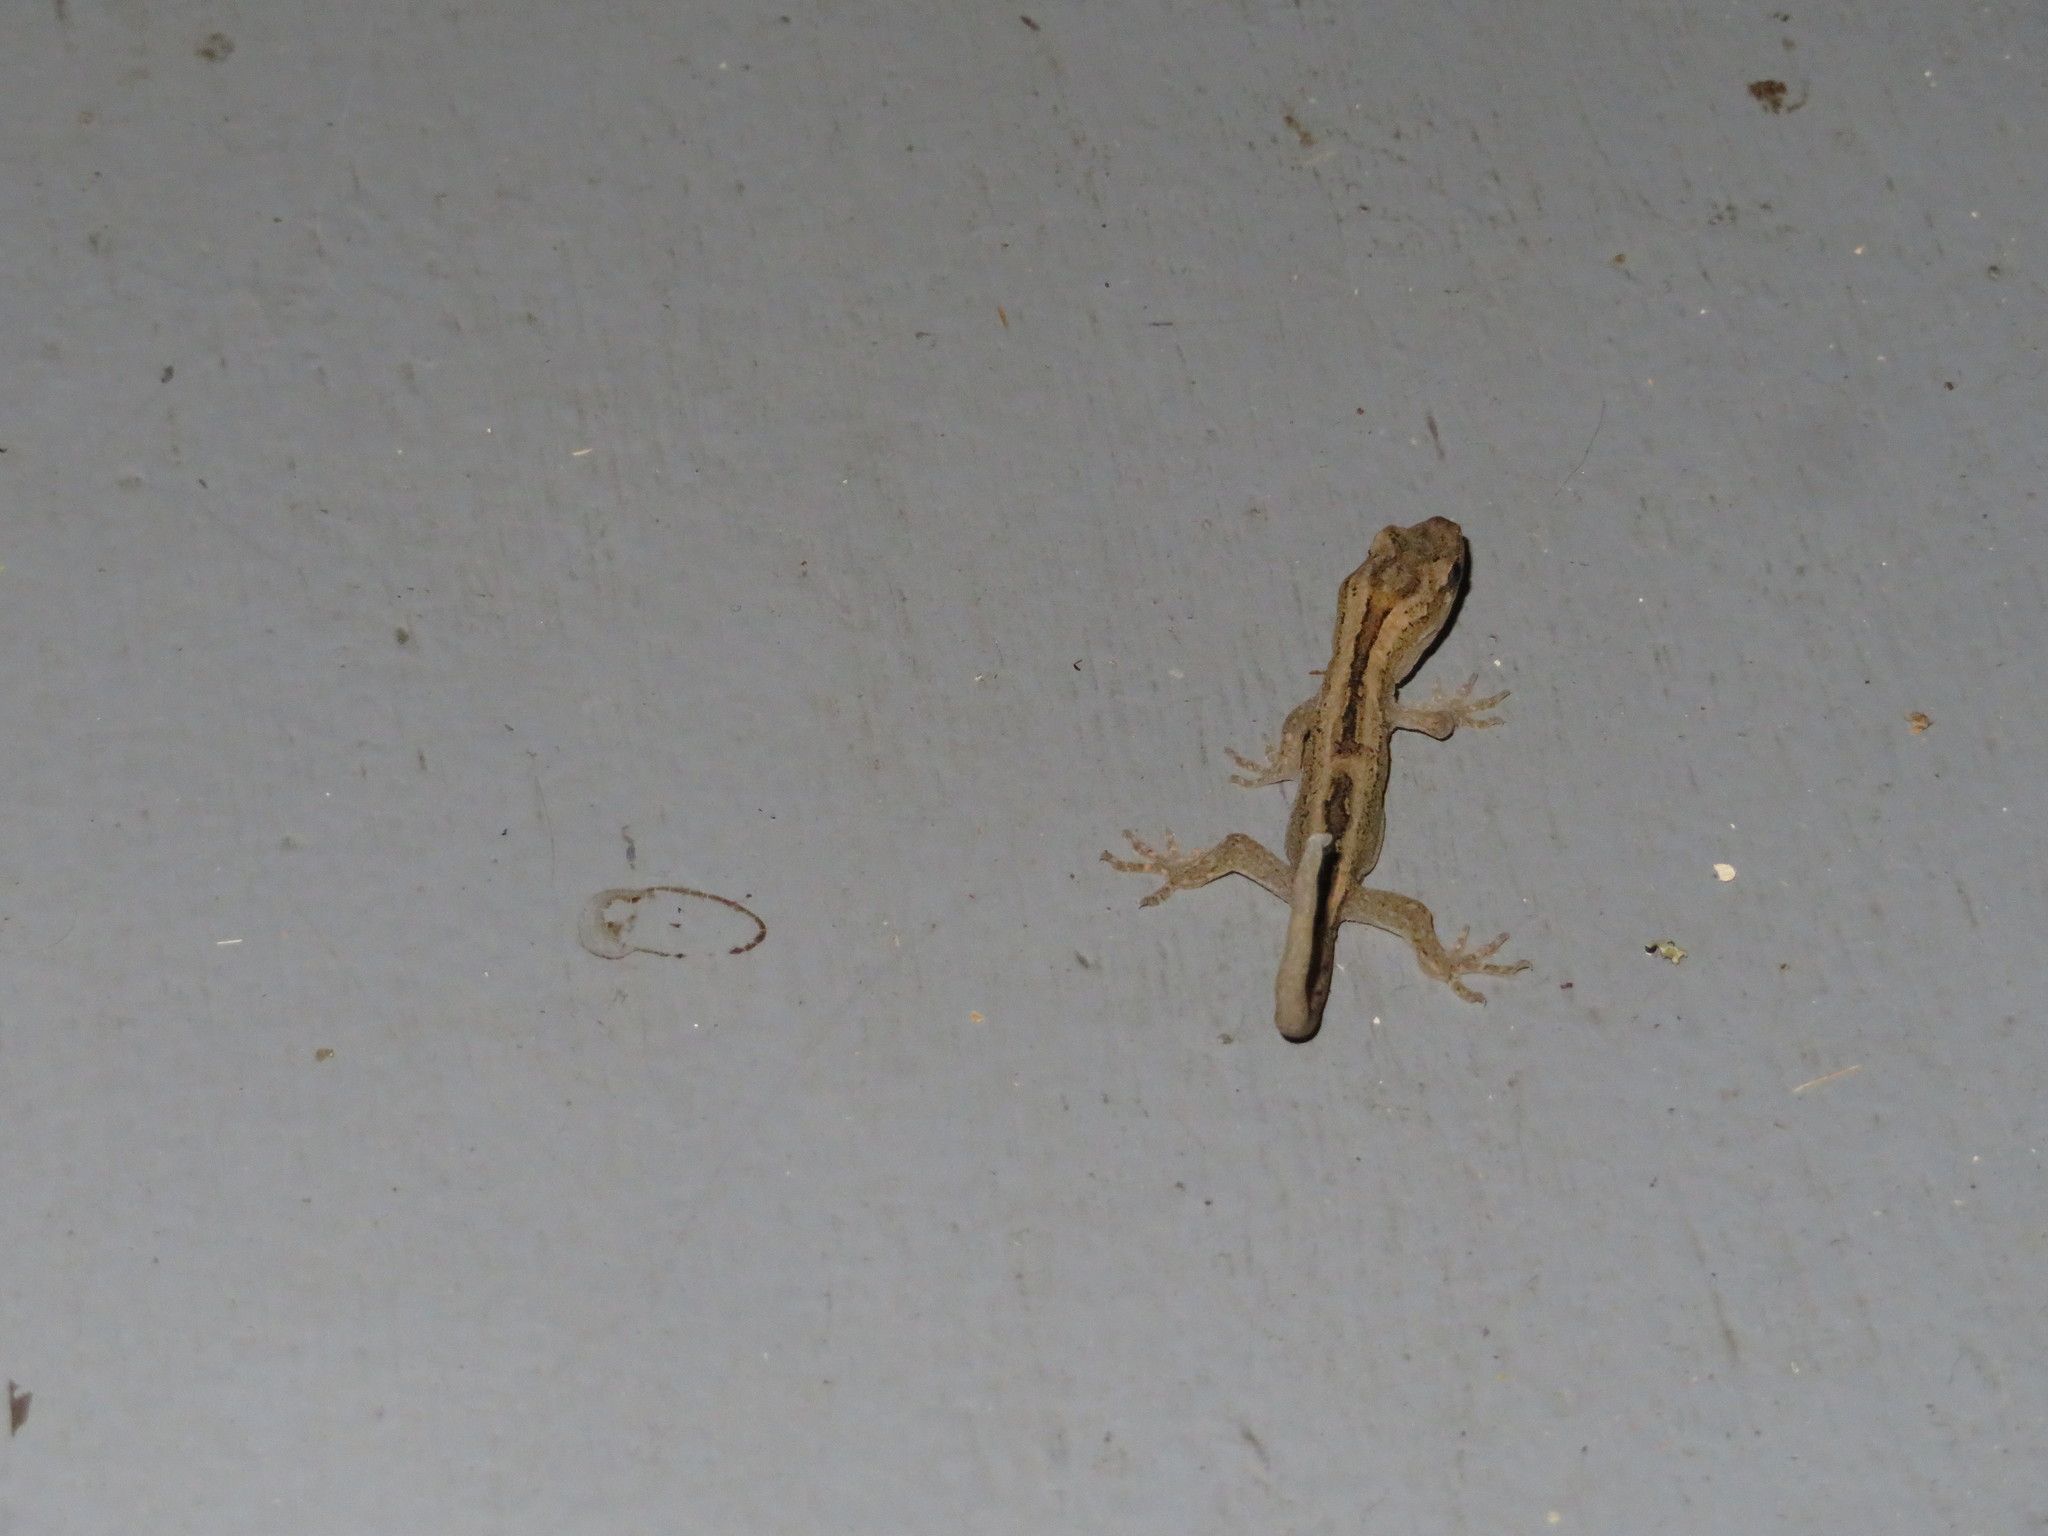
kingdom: Animalia
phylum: Chordata
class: Squamata
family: Diplodactylidae
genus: Woodworthia
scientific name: Woodworthia maculata
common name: Raukawa gecko
